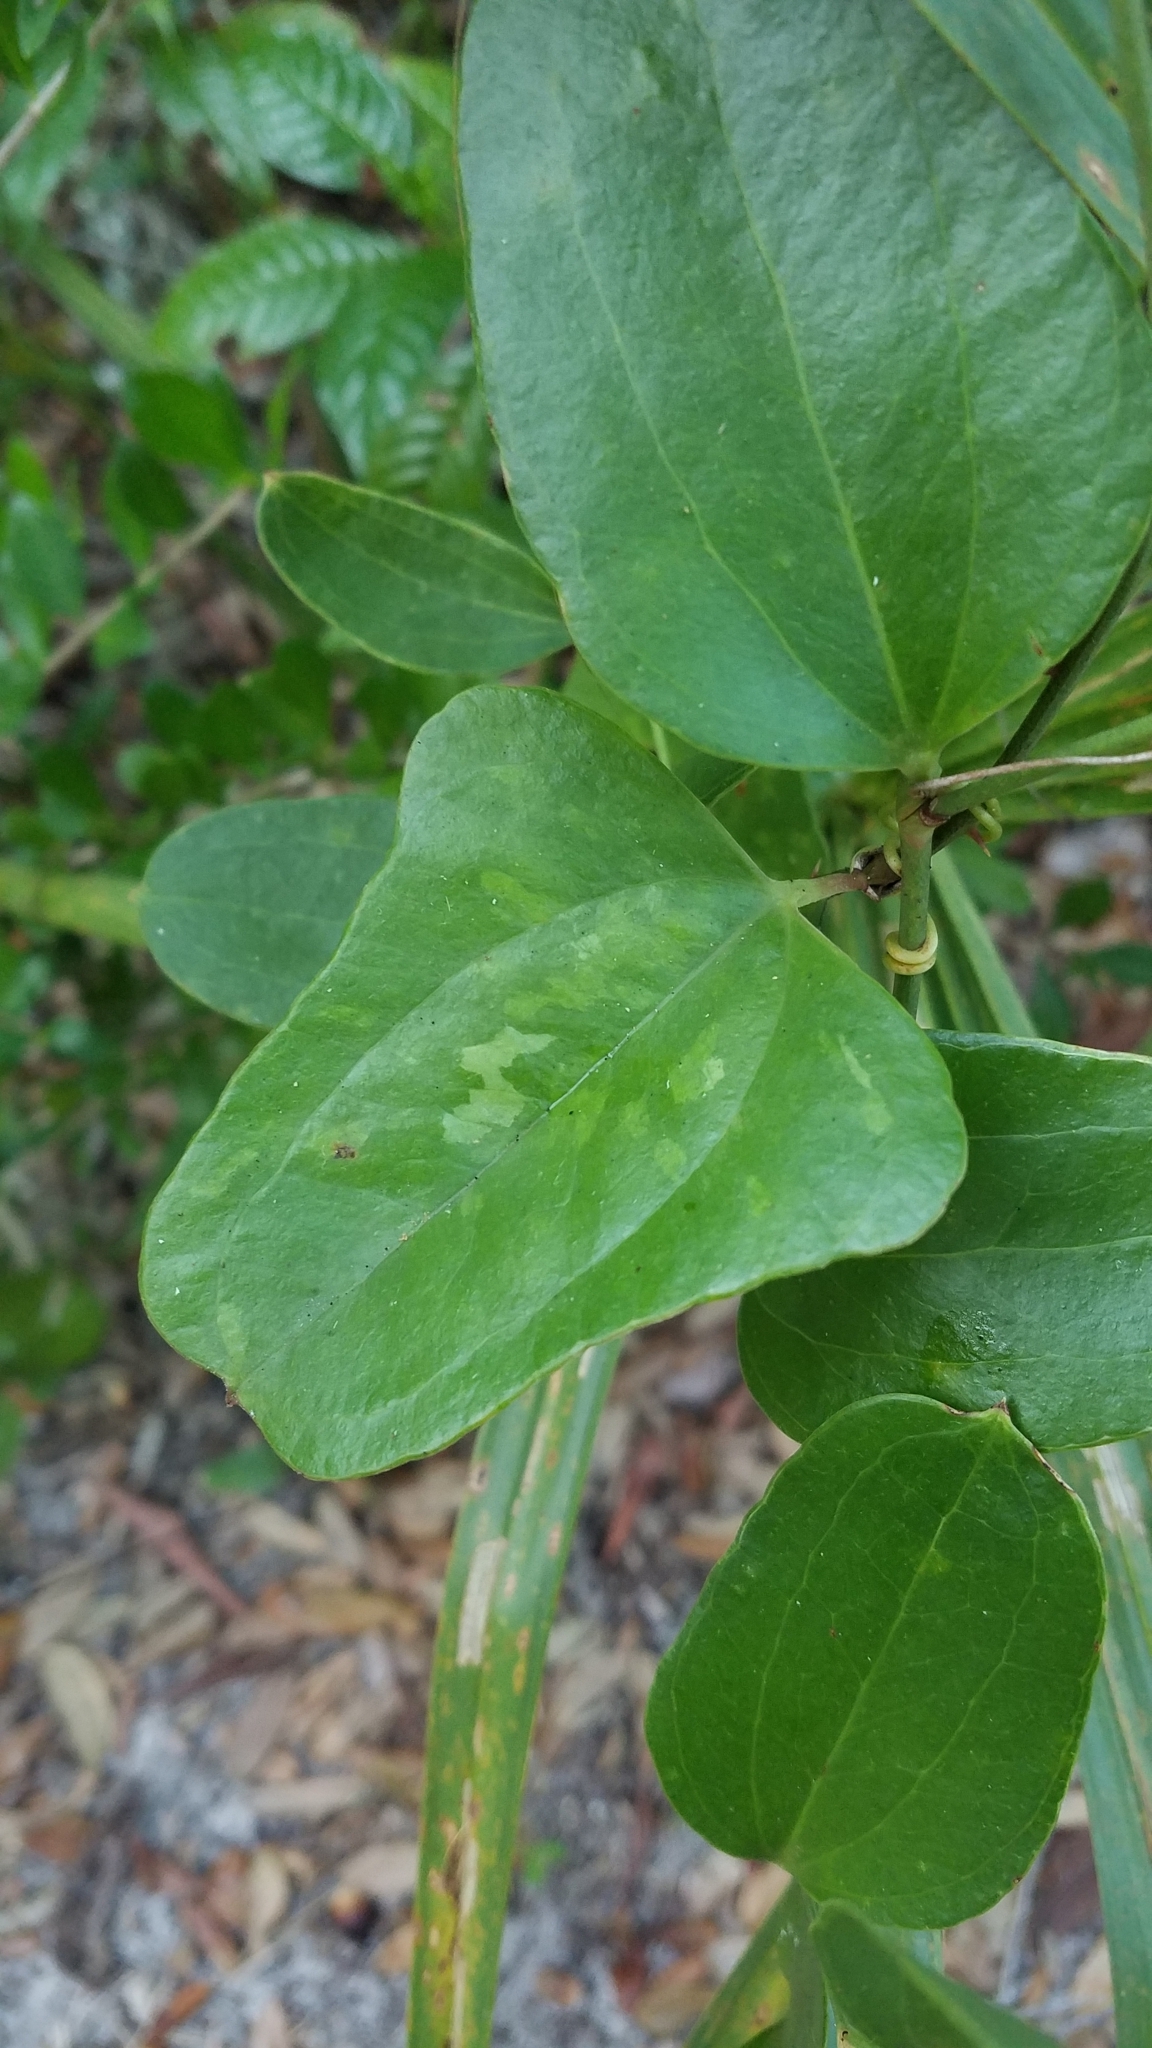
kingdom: Plantae
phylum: Tracheophyta
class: Liliopsida
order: Liliales
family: Smilacaceae
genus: Smilax
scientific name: Smilax auriculata
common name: Wild bamboo
